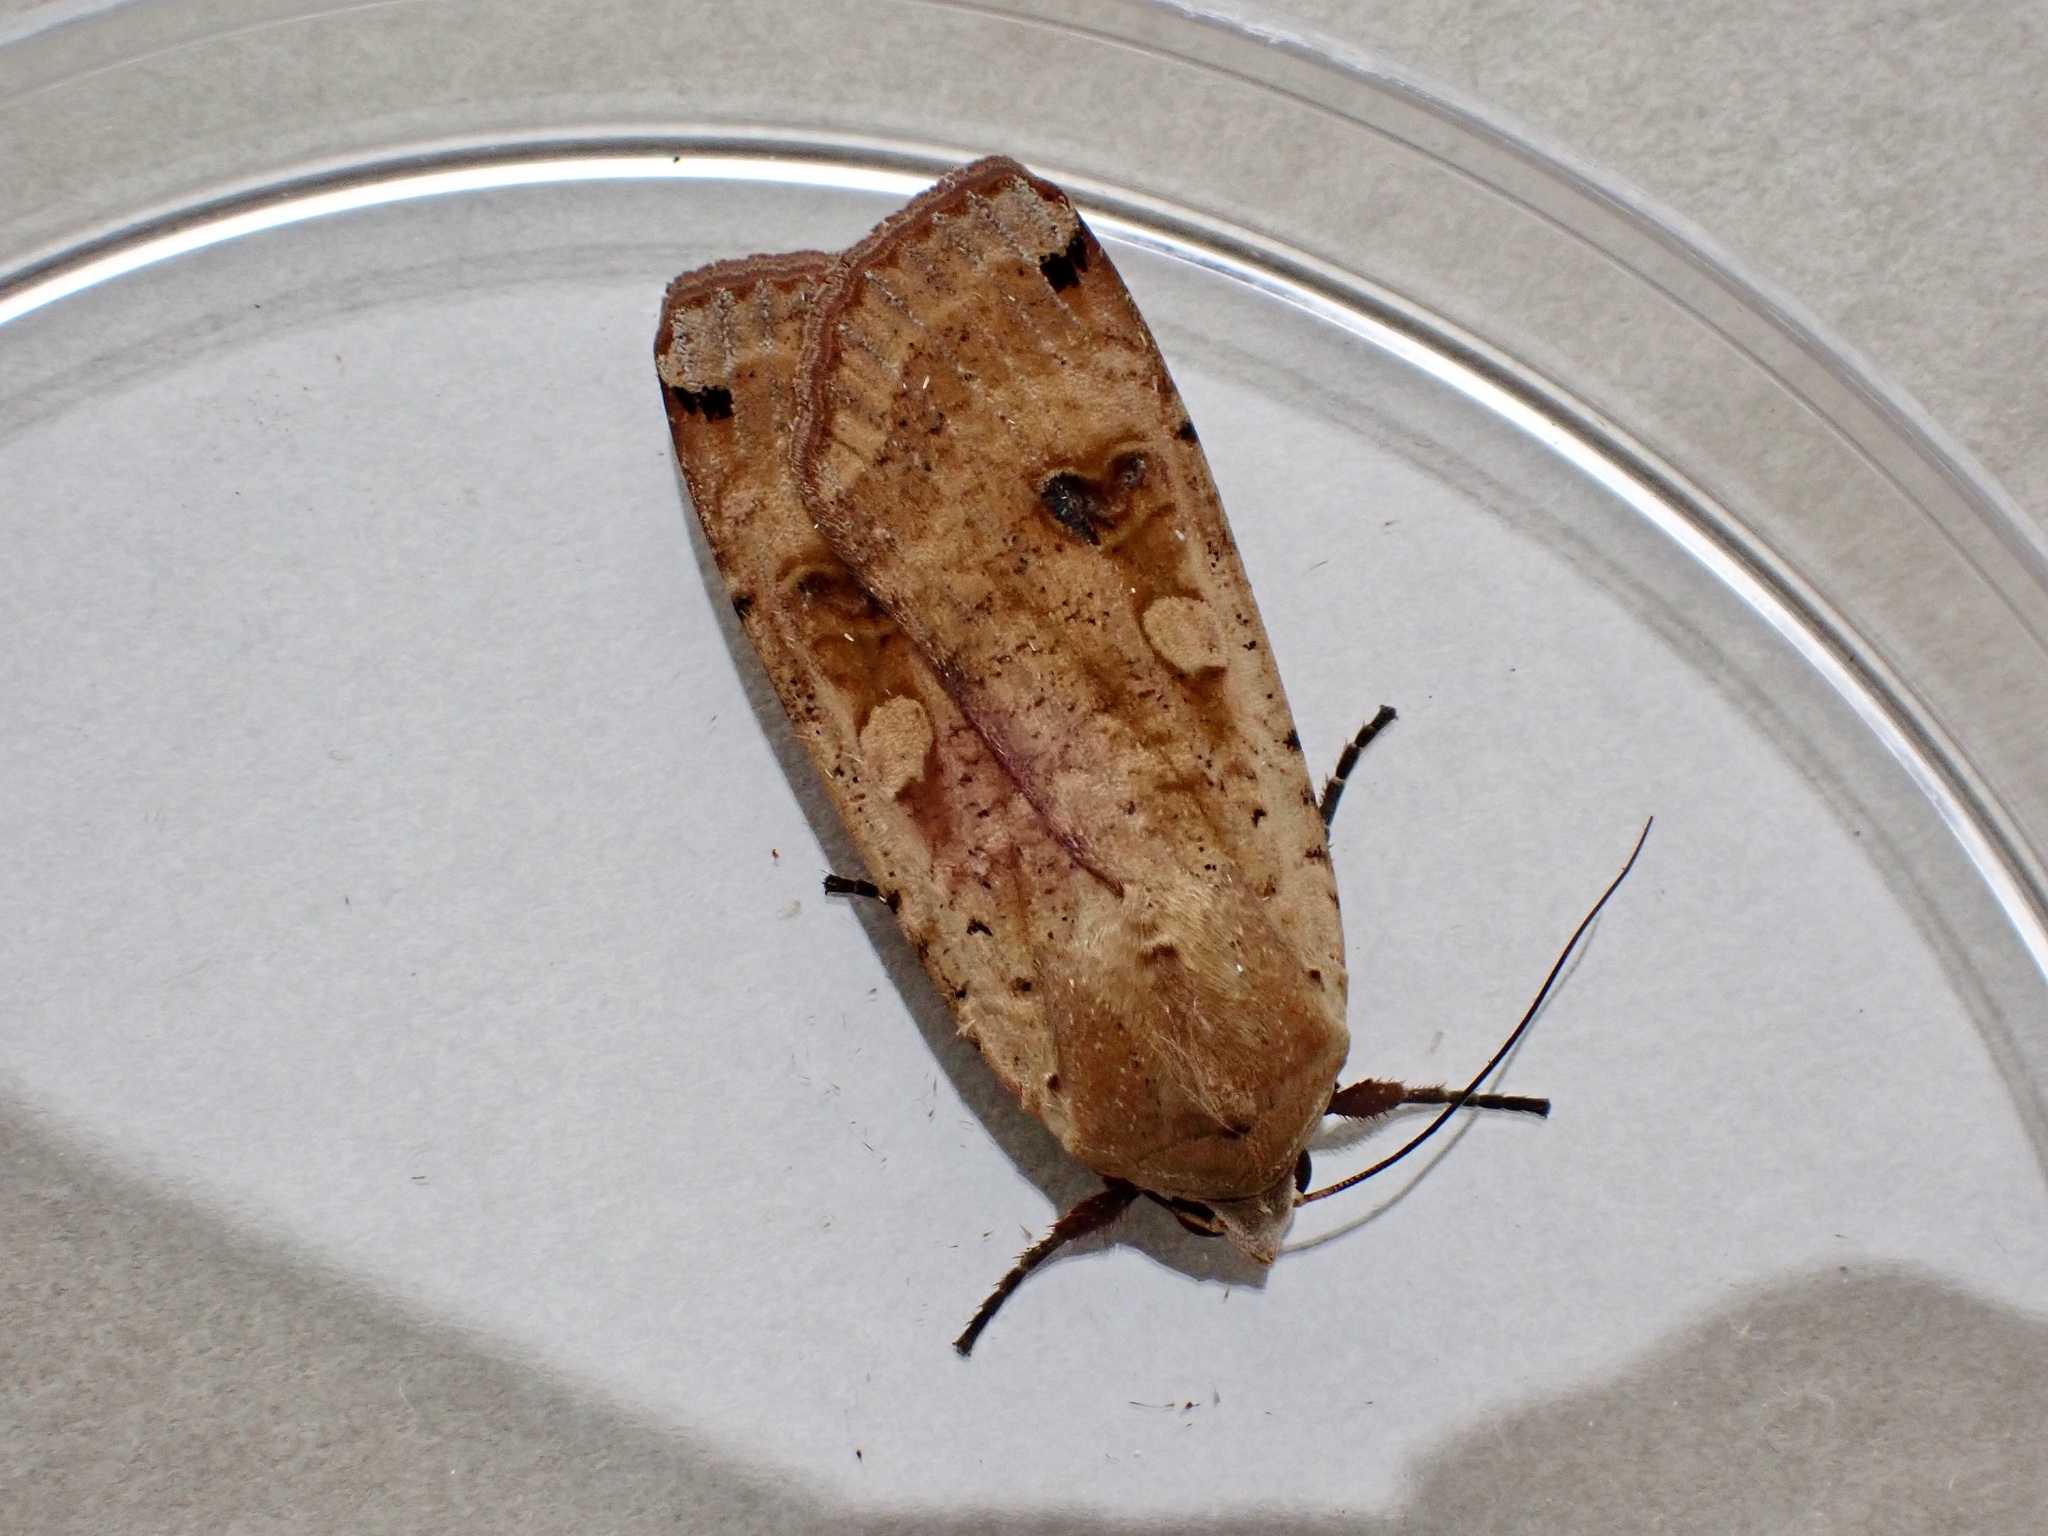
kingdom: Animalia
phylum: Arthropoda
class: Insecta
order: Lepidoptera
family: Noctuidae
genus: Noctua
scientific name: Noctua pronuba
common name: Large yellow underwing
